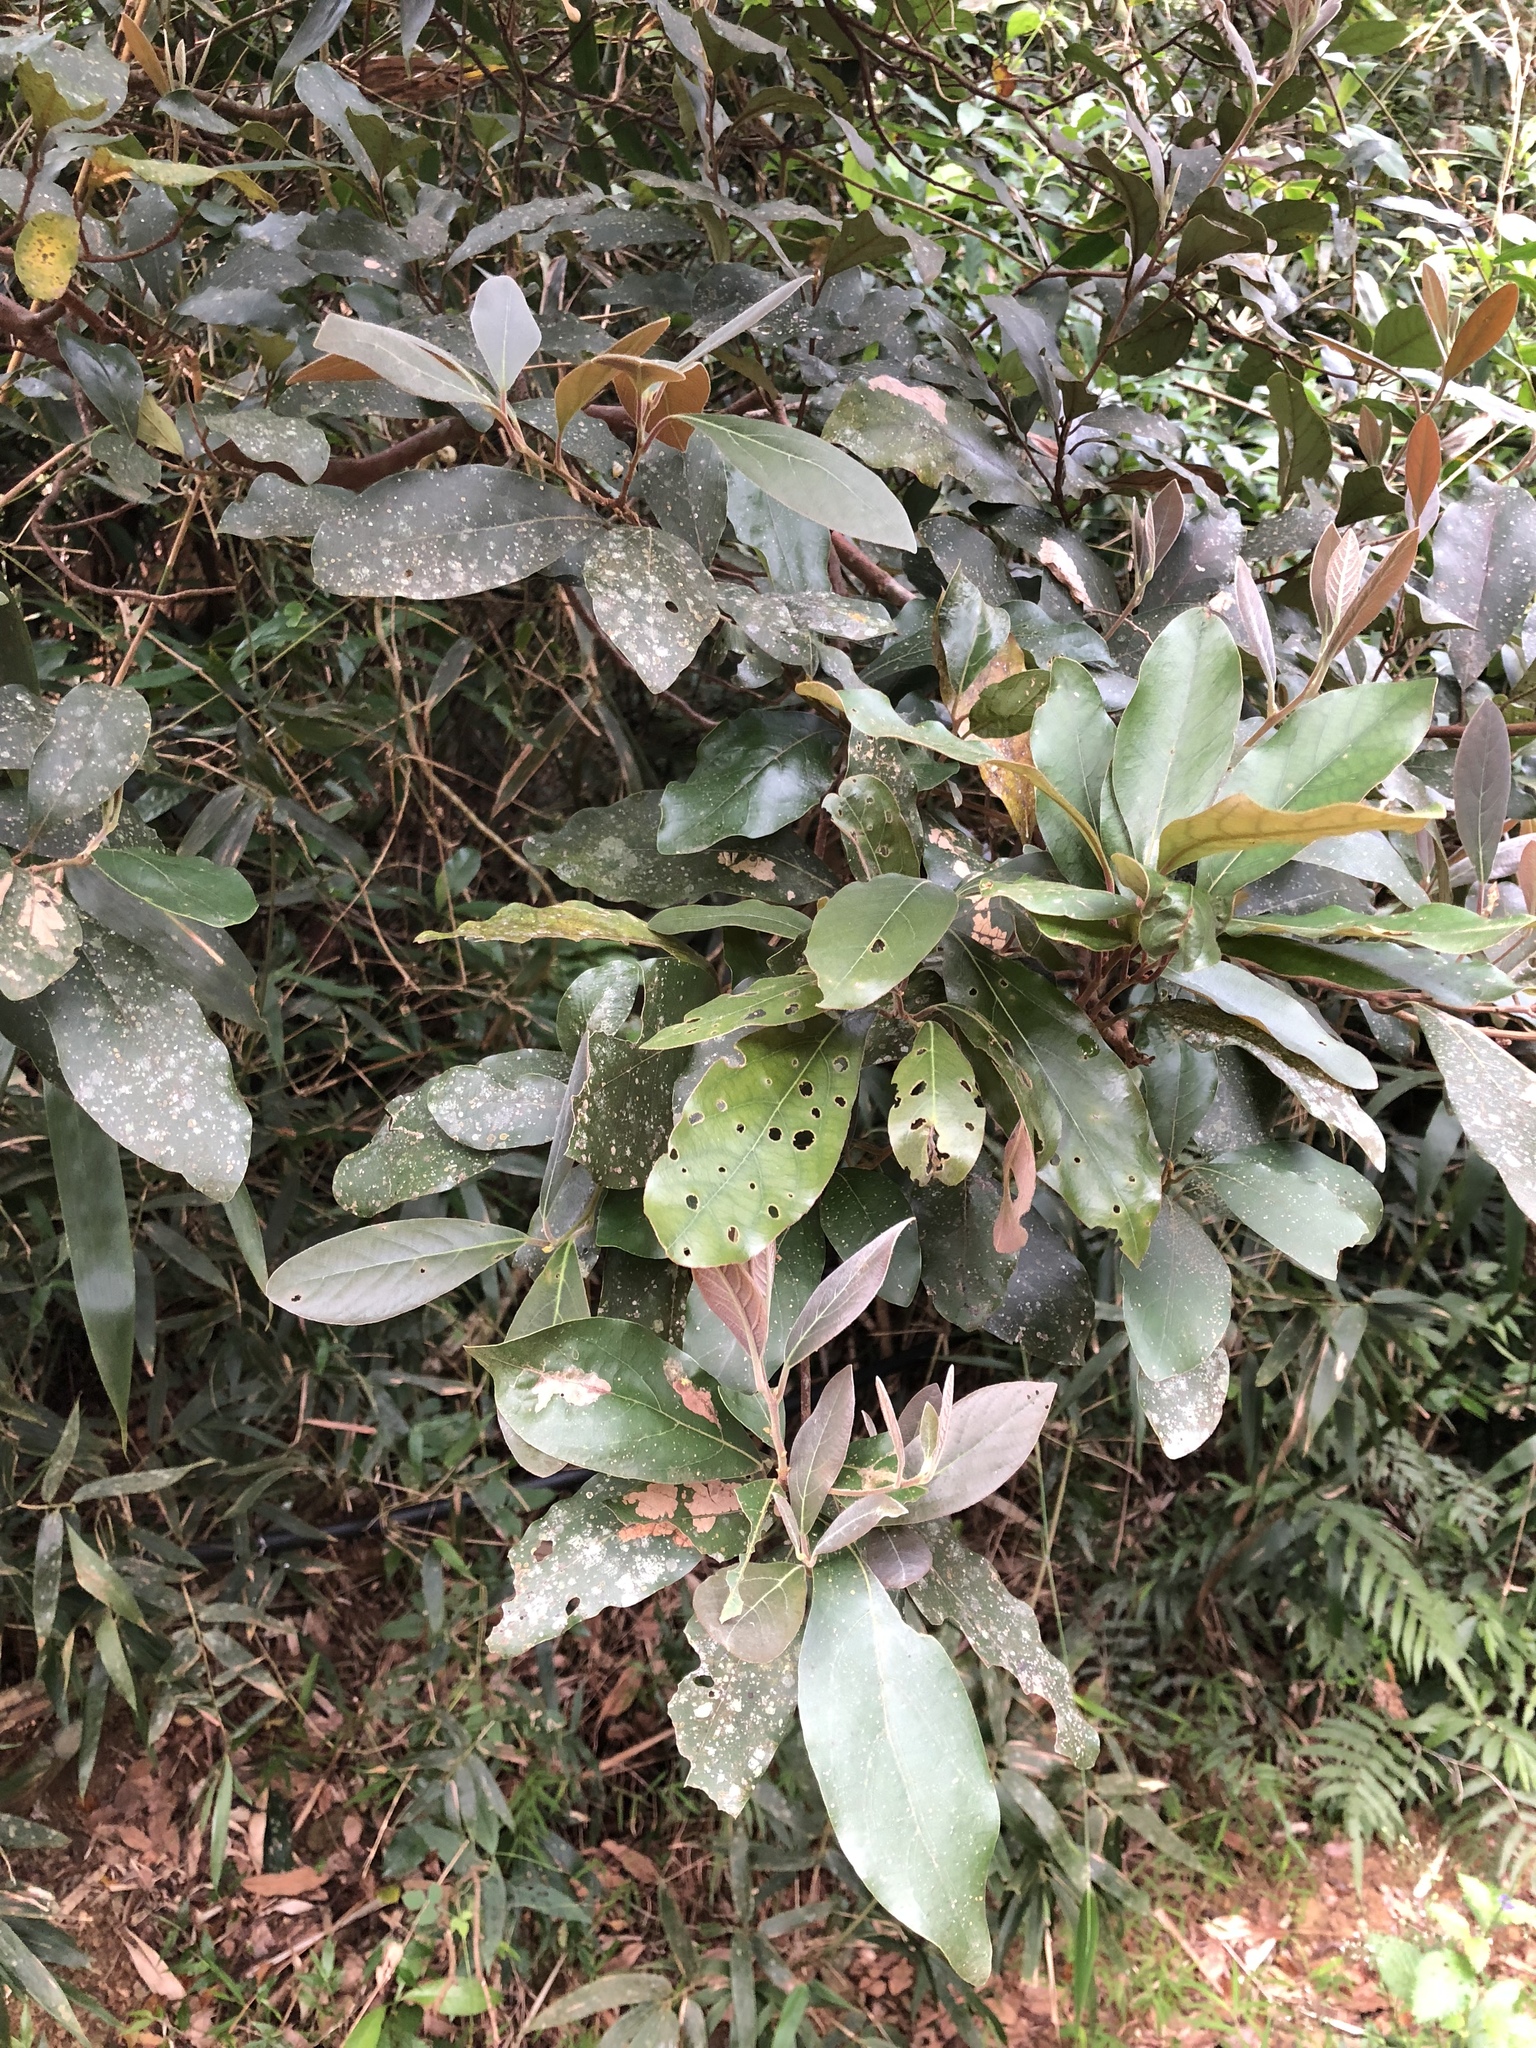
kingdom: Plantae
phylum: Tracheophyta
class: Magnoliopsida
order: Laurales
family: Lauraceae
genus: Litsea
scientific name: Litsea akoensis
